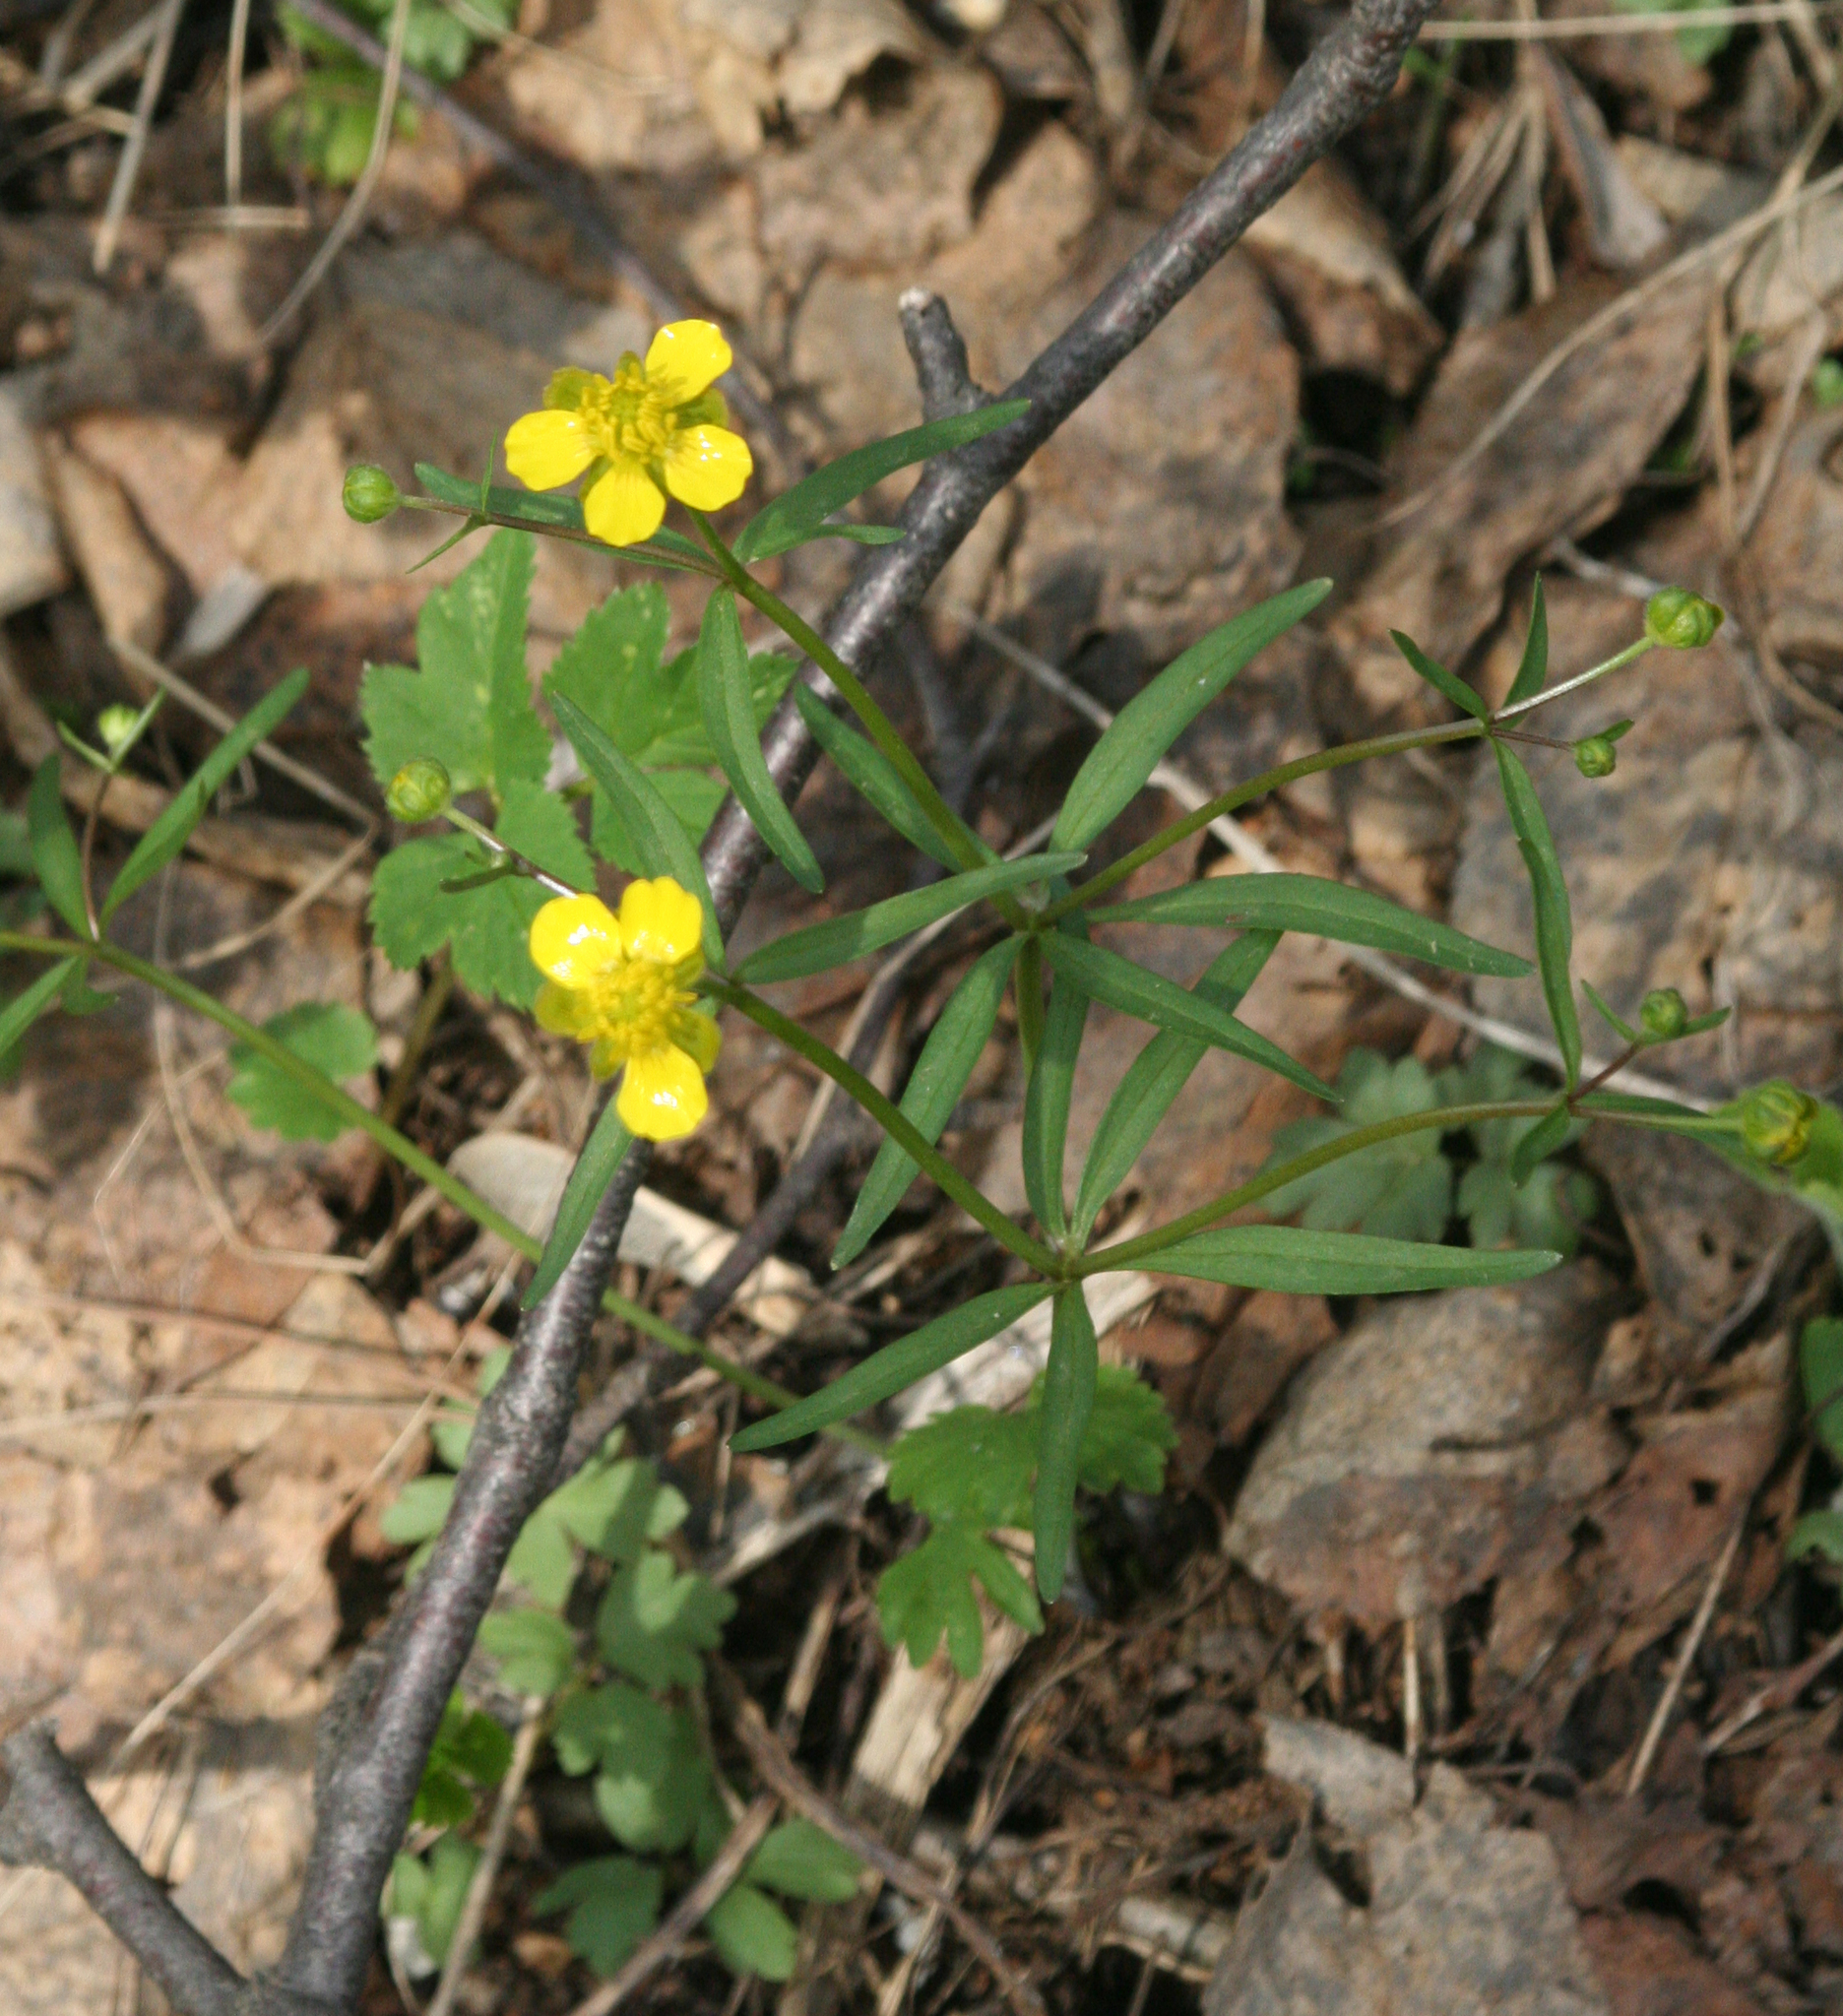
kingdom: Plantae
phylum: Tracheophyta
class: Magnoliopsida
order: Ranunculales
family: Ranunculaceae
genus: Ranunculus
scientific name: Ranunculus monophyllus
